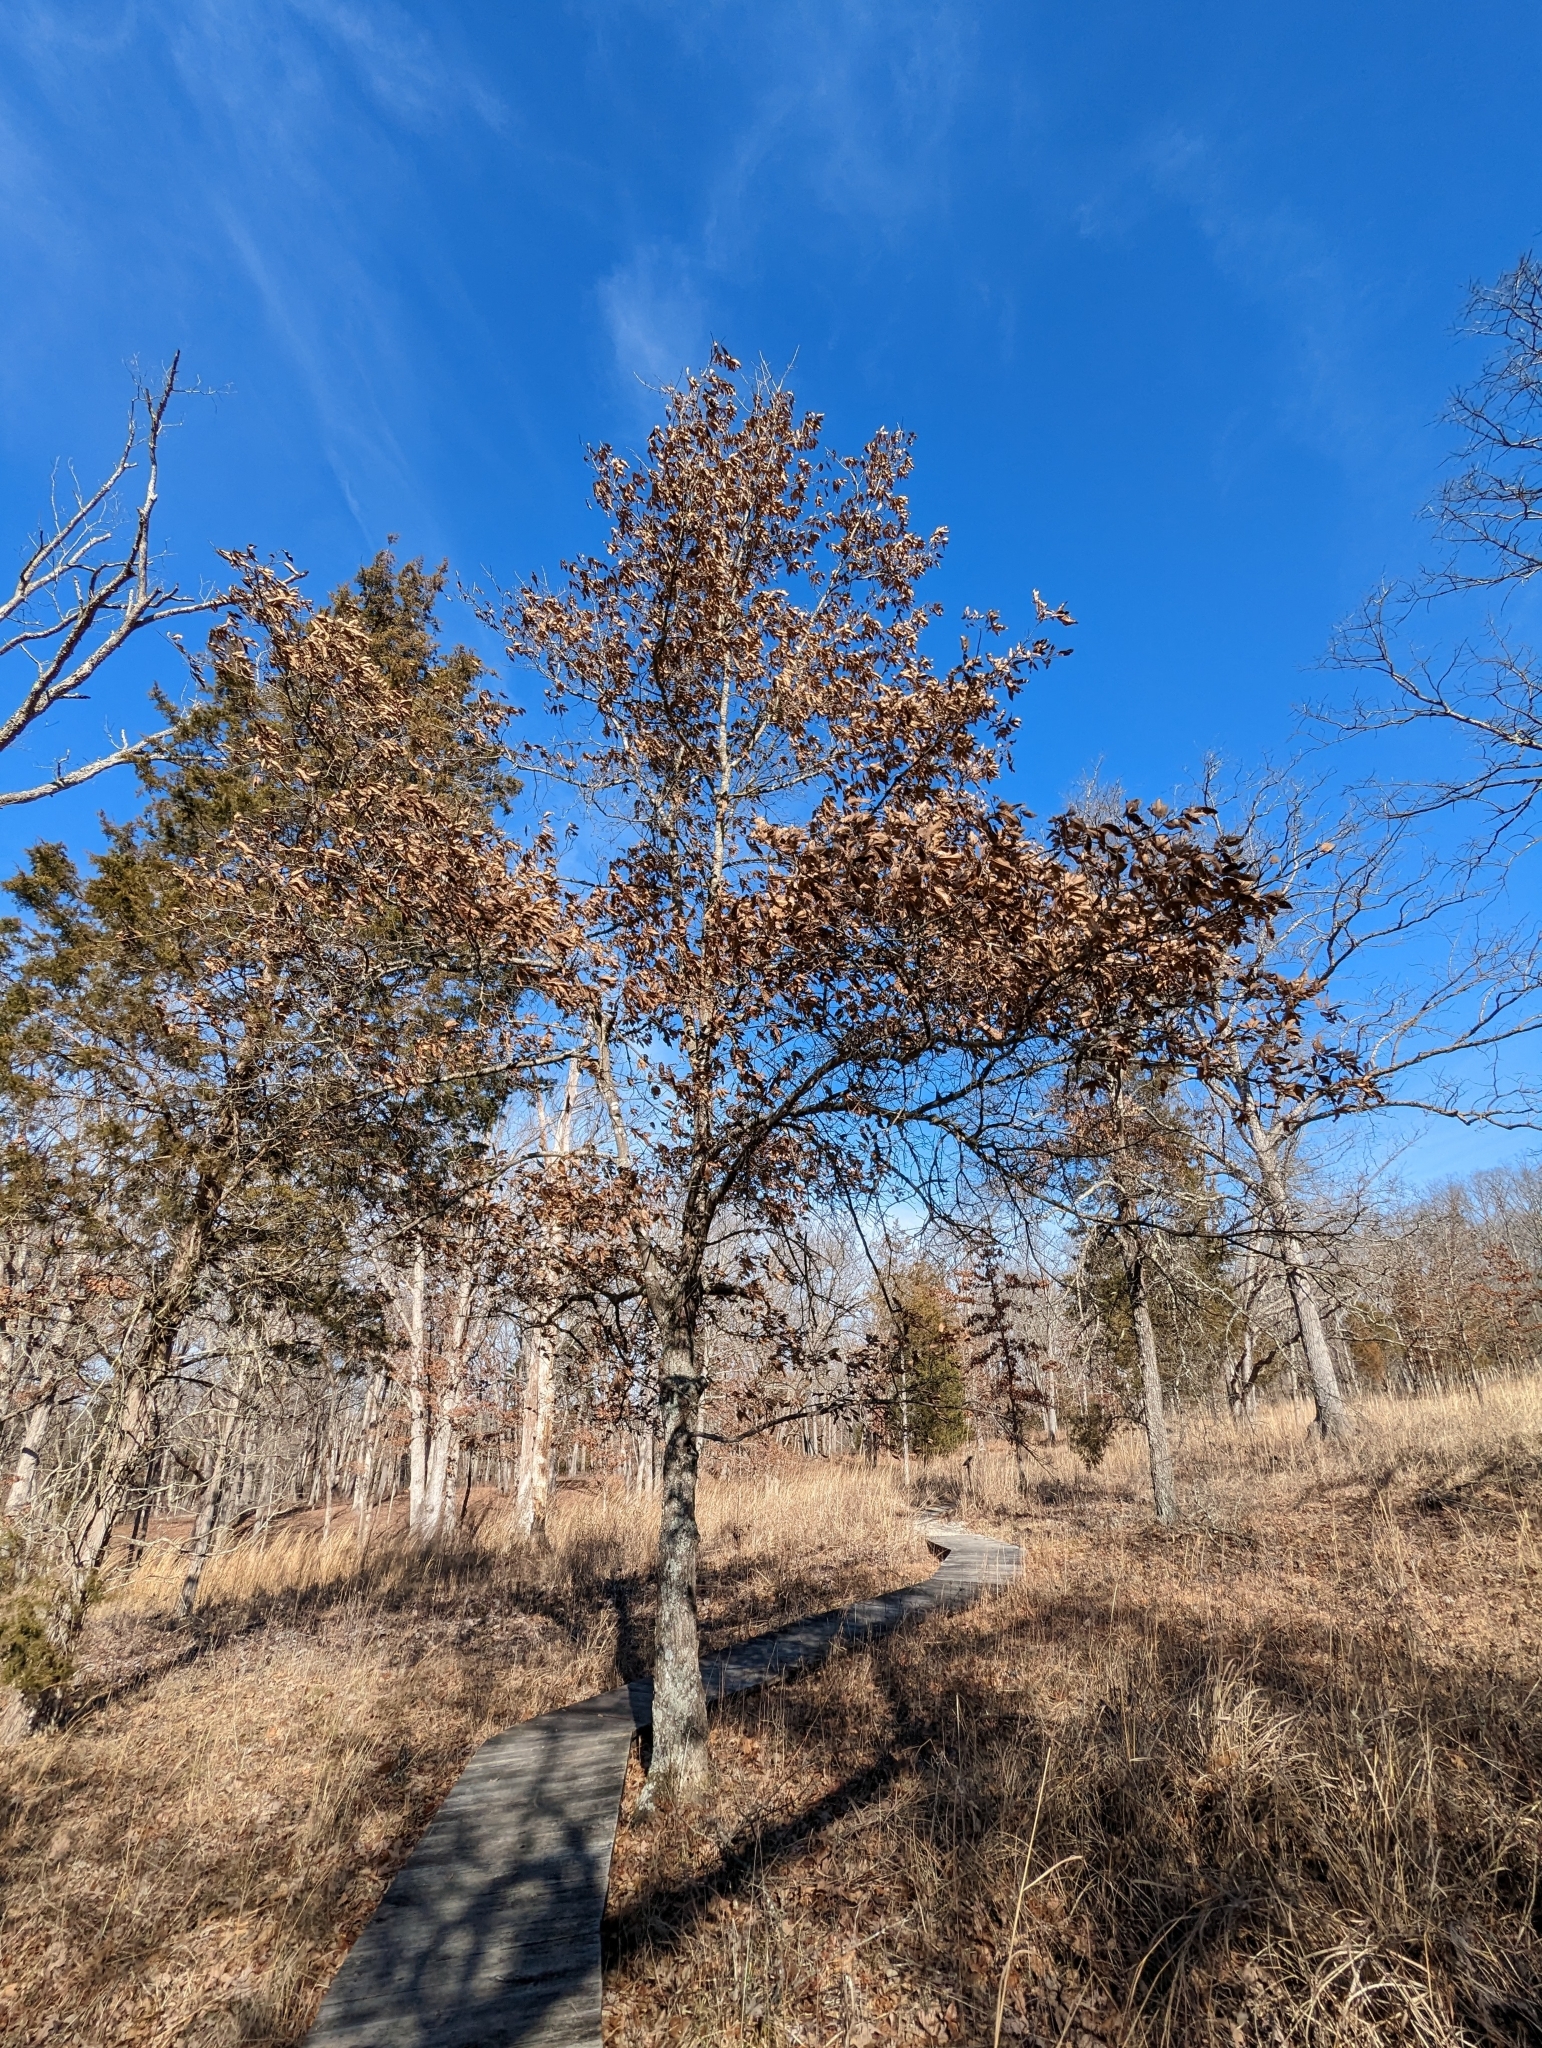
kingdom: Plantae
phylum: Tracheophyta
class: Magnoliopsida
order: Fagales
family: Fagaceae
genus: Quercus
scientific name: Quercus imbricaria
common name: Shingle oak
